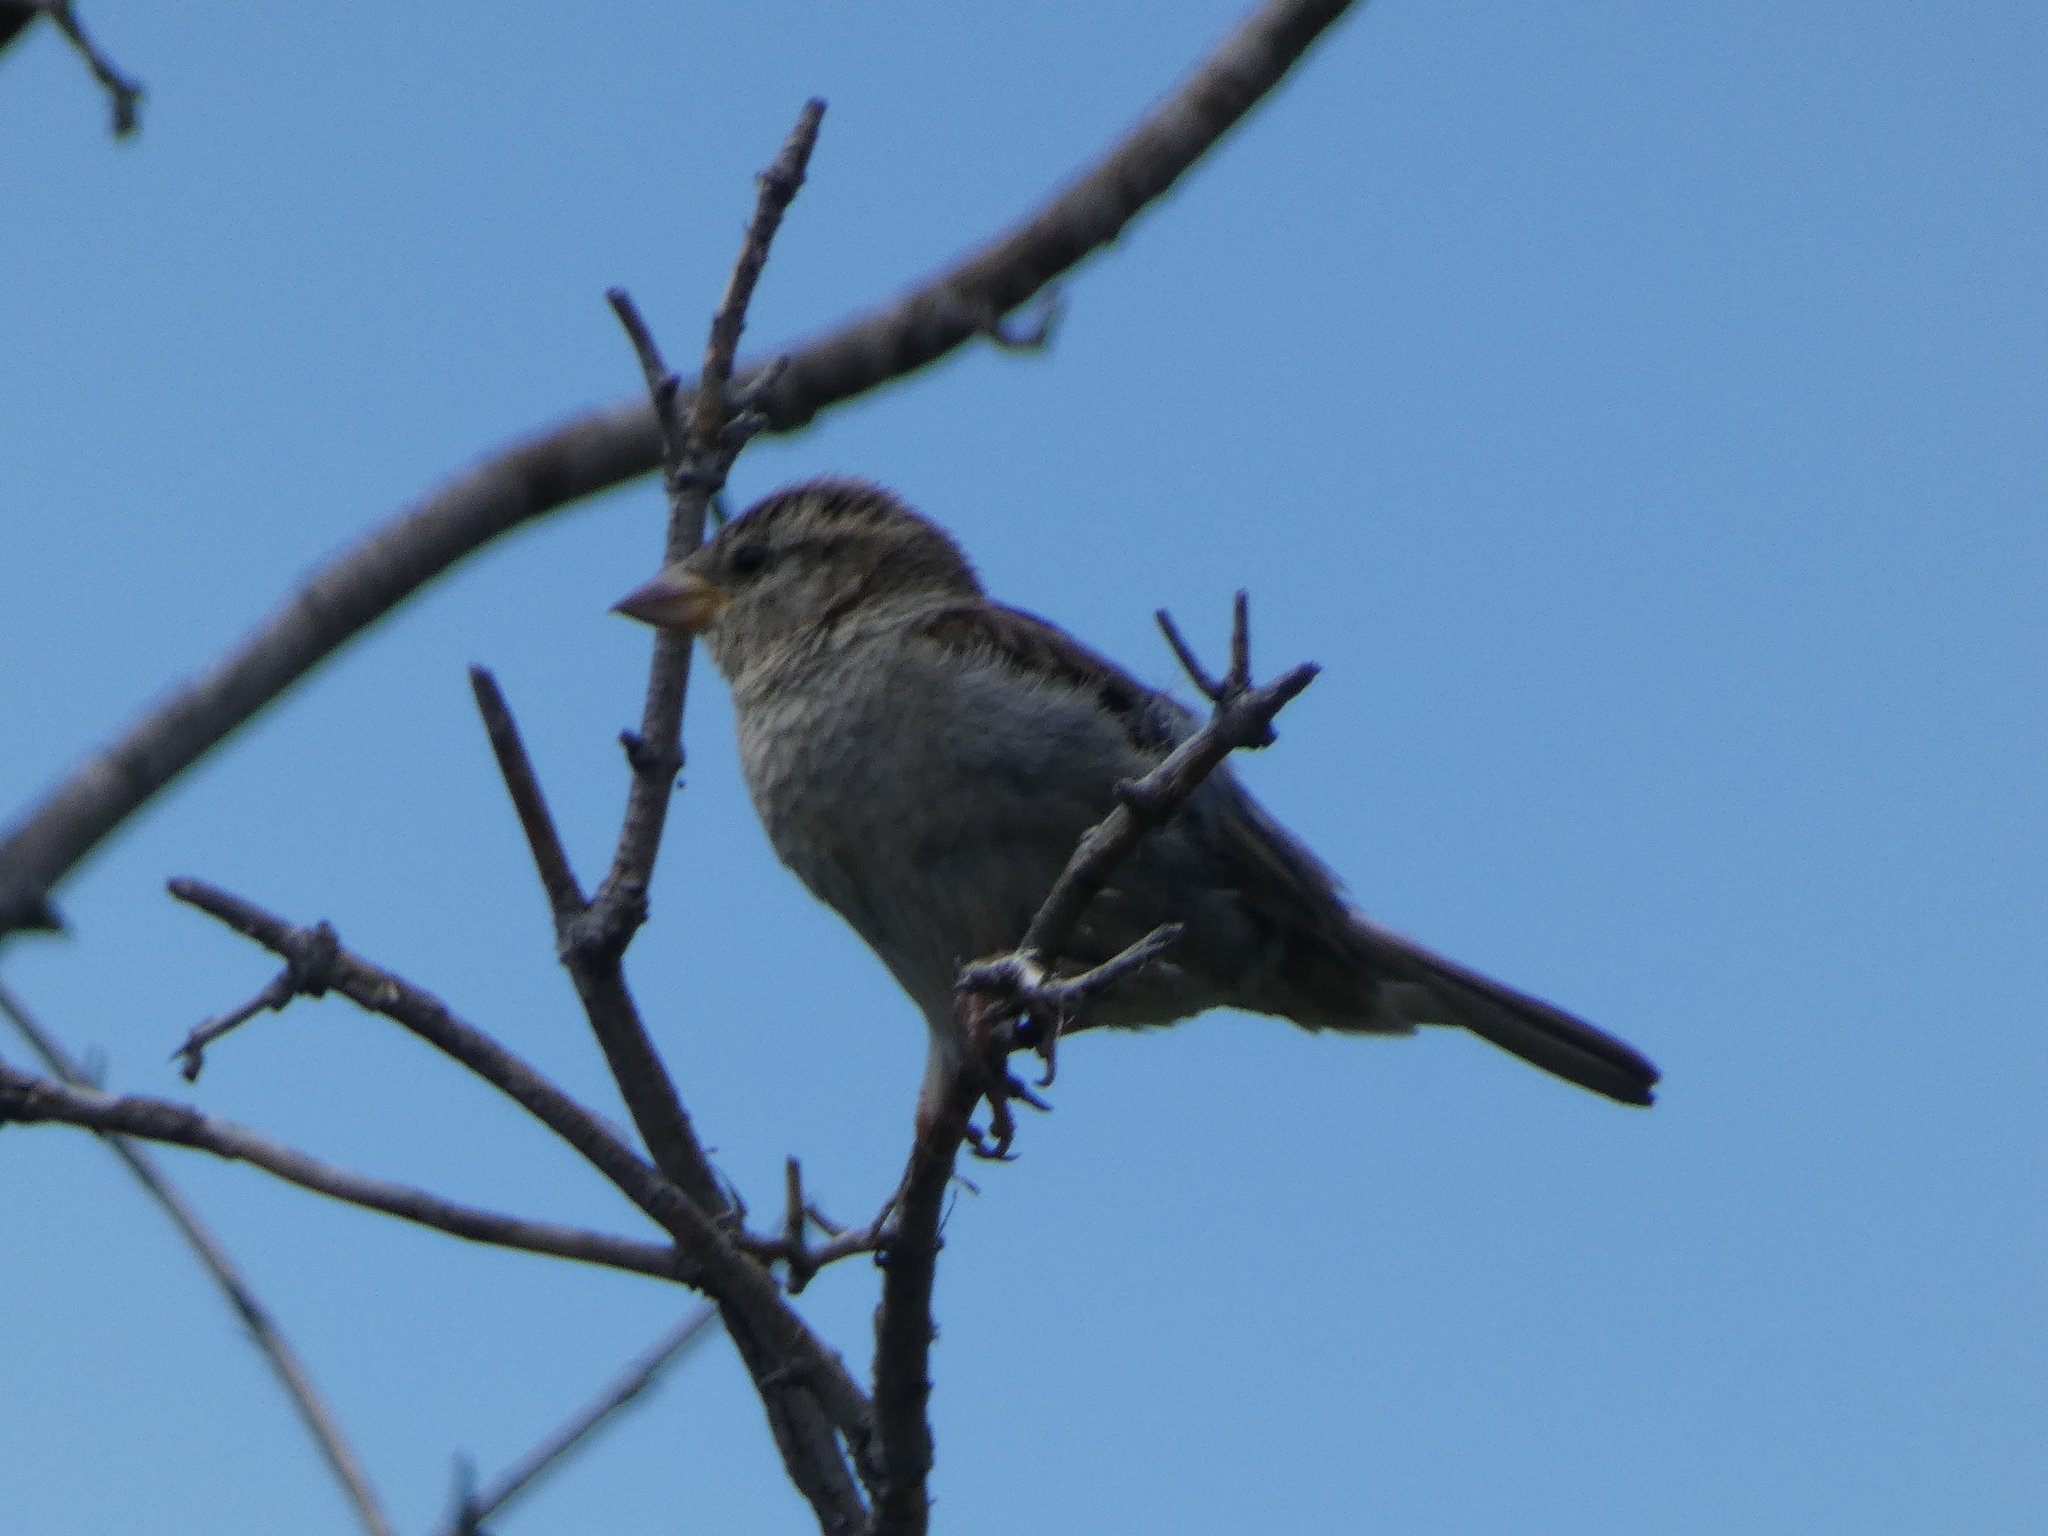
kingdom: Animalia
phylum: Chordata
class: Aves
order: Passeriformes
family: Passeridae
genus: Passer
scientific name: Passer domesticus
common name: House sparrow
